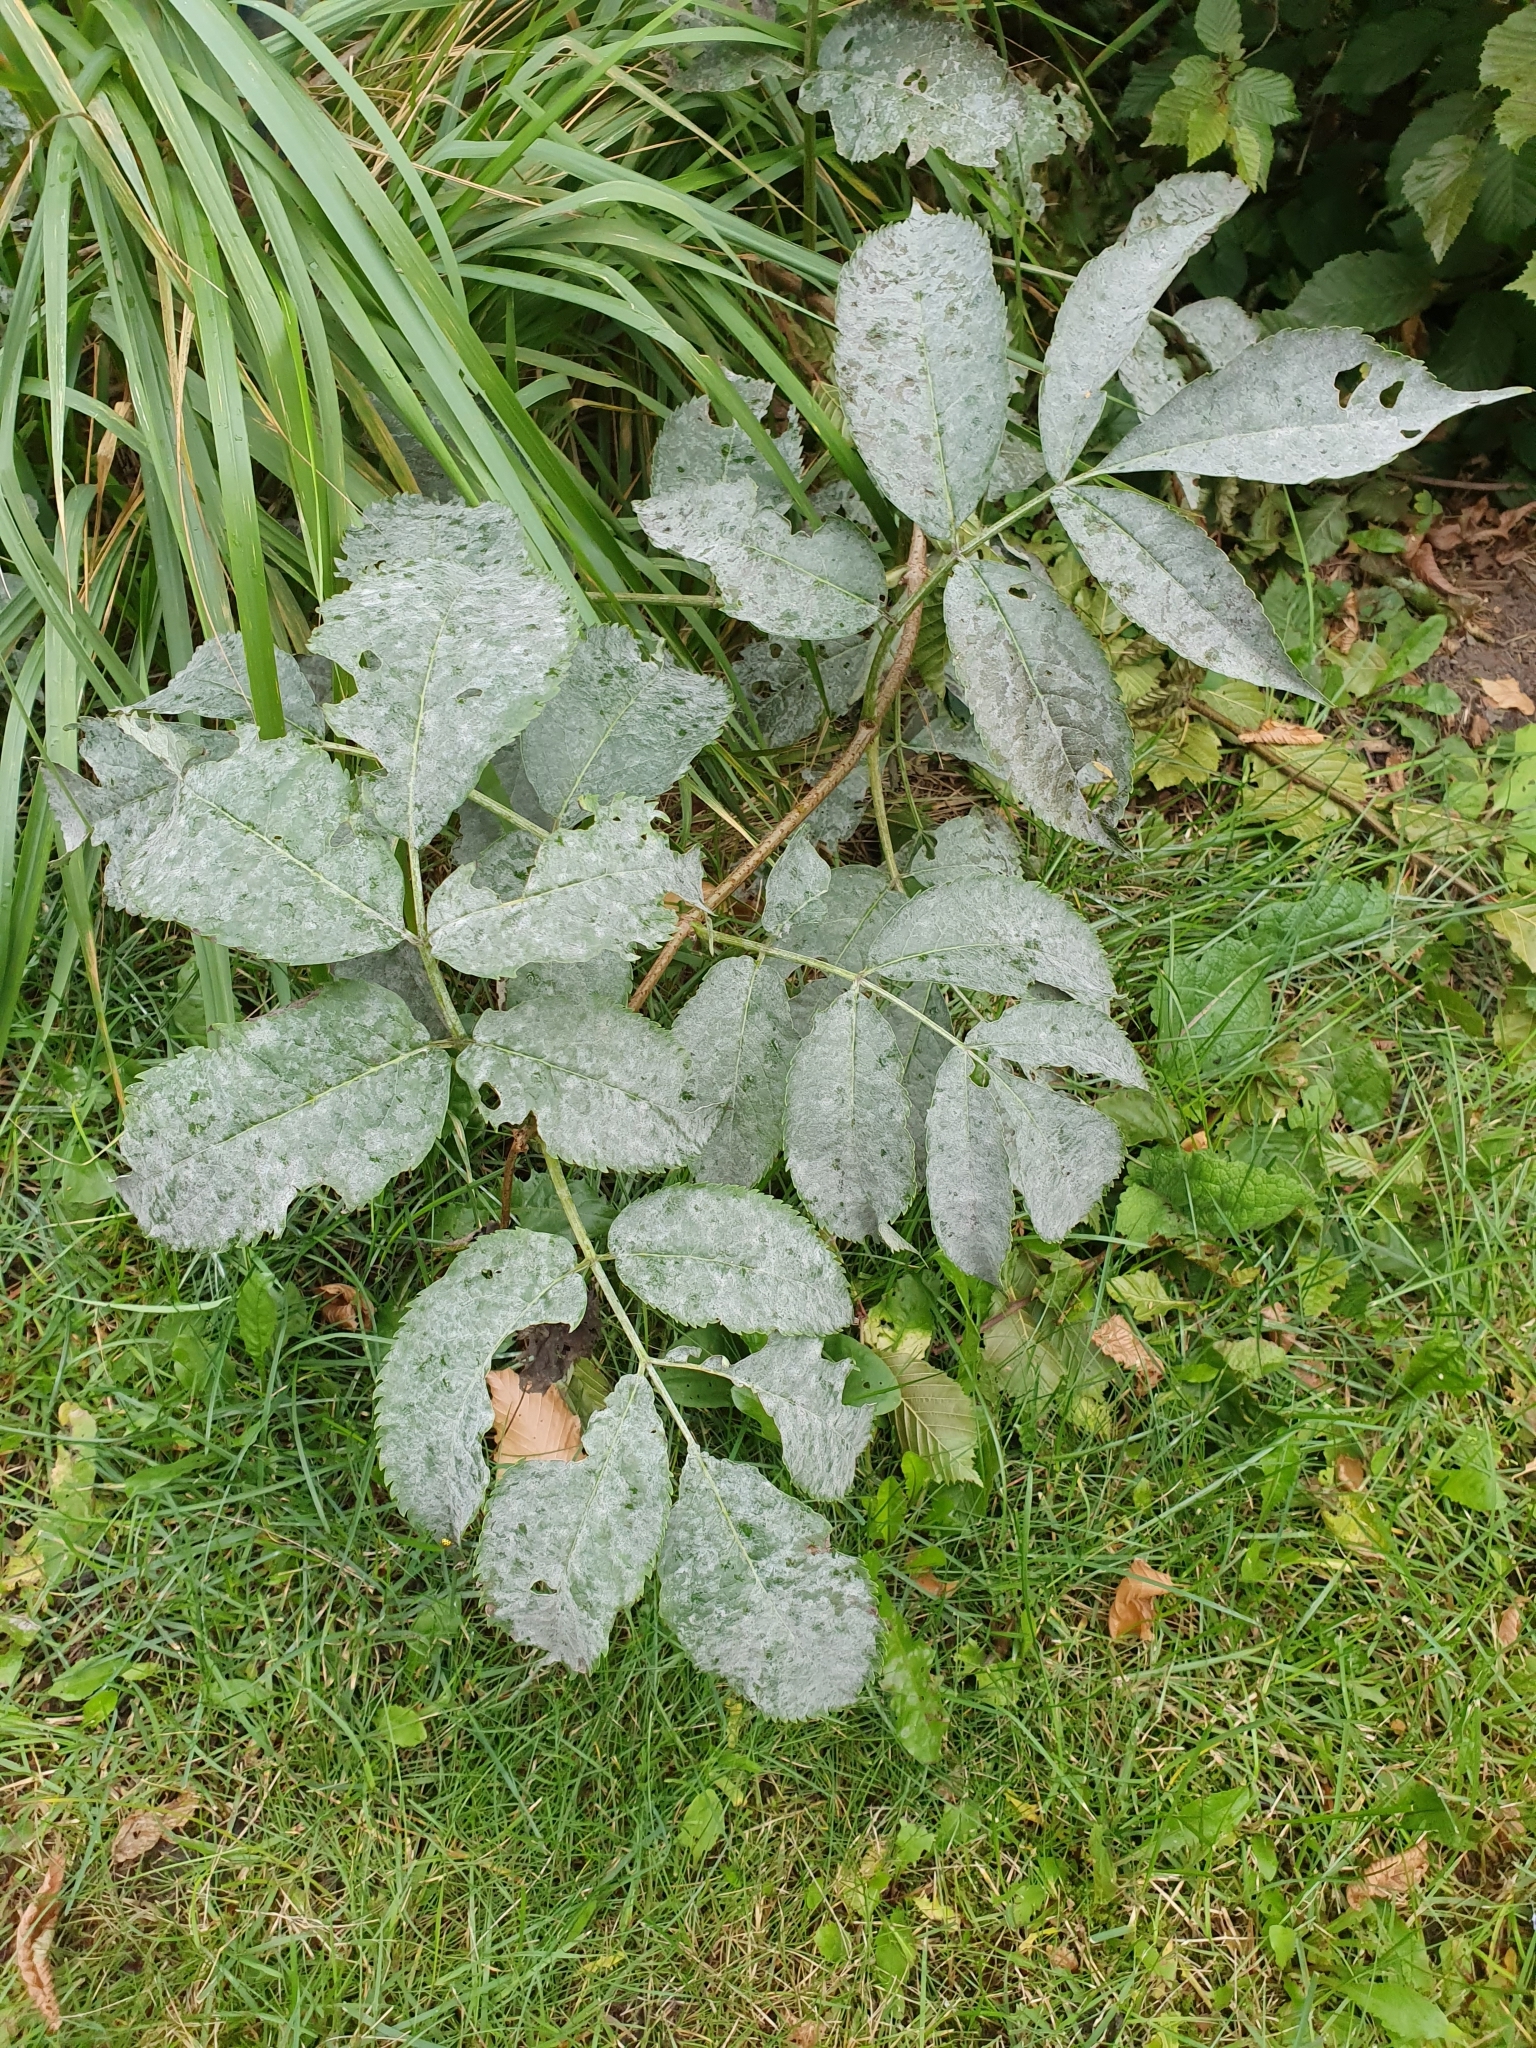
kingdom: Fungi
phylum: Ascomycota
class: Leotiomycetes
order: Helotiales
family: Erysiphaceae
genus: Erysiphe
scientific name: Erysiphe sambuci
